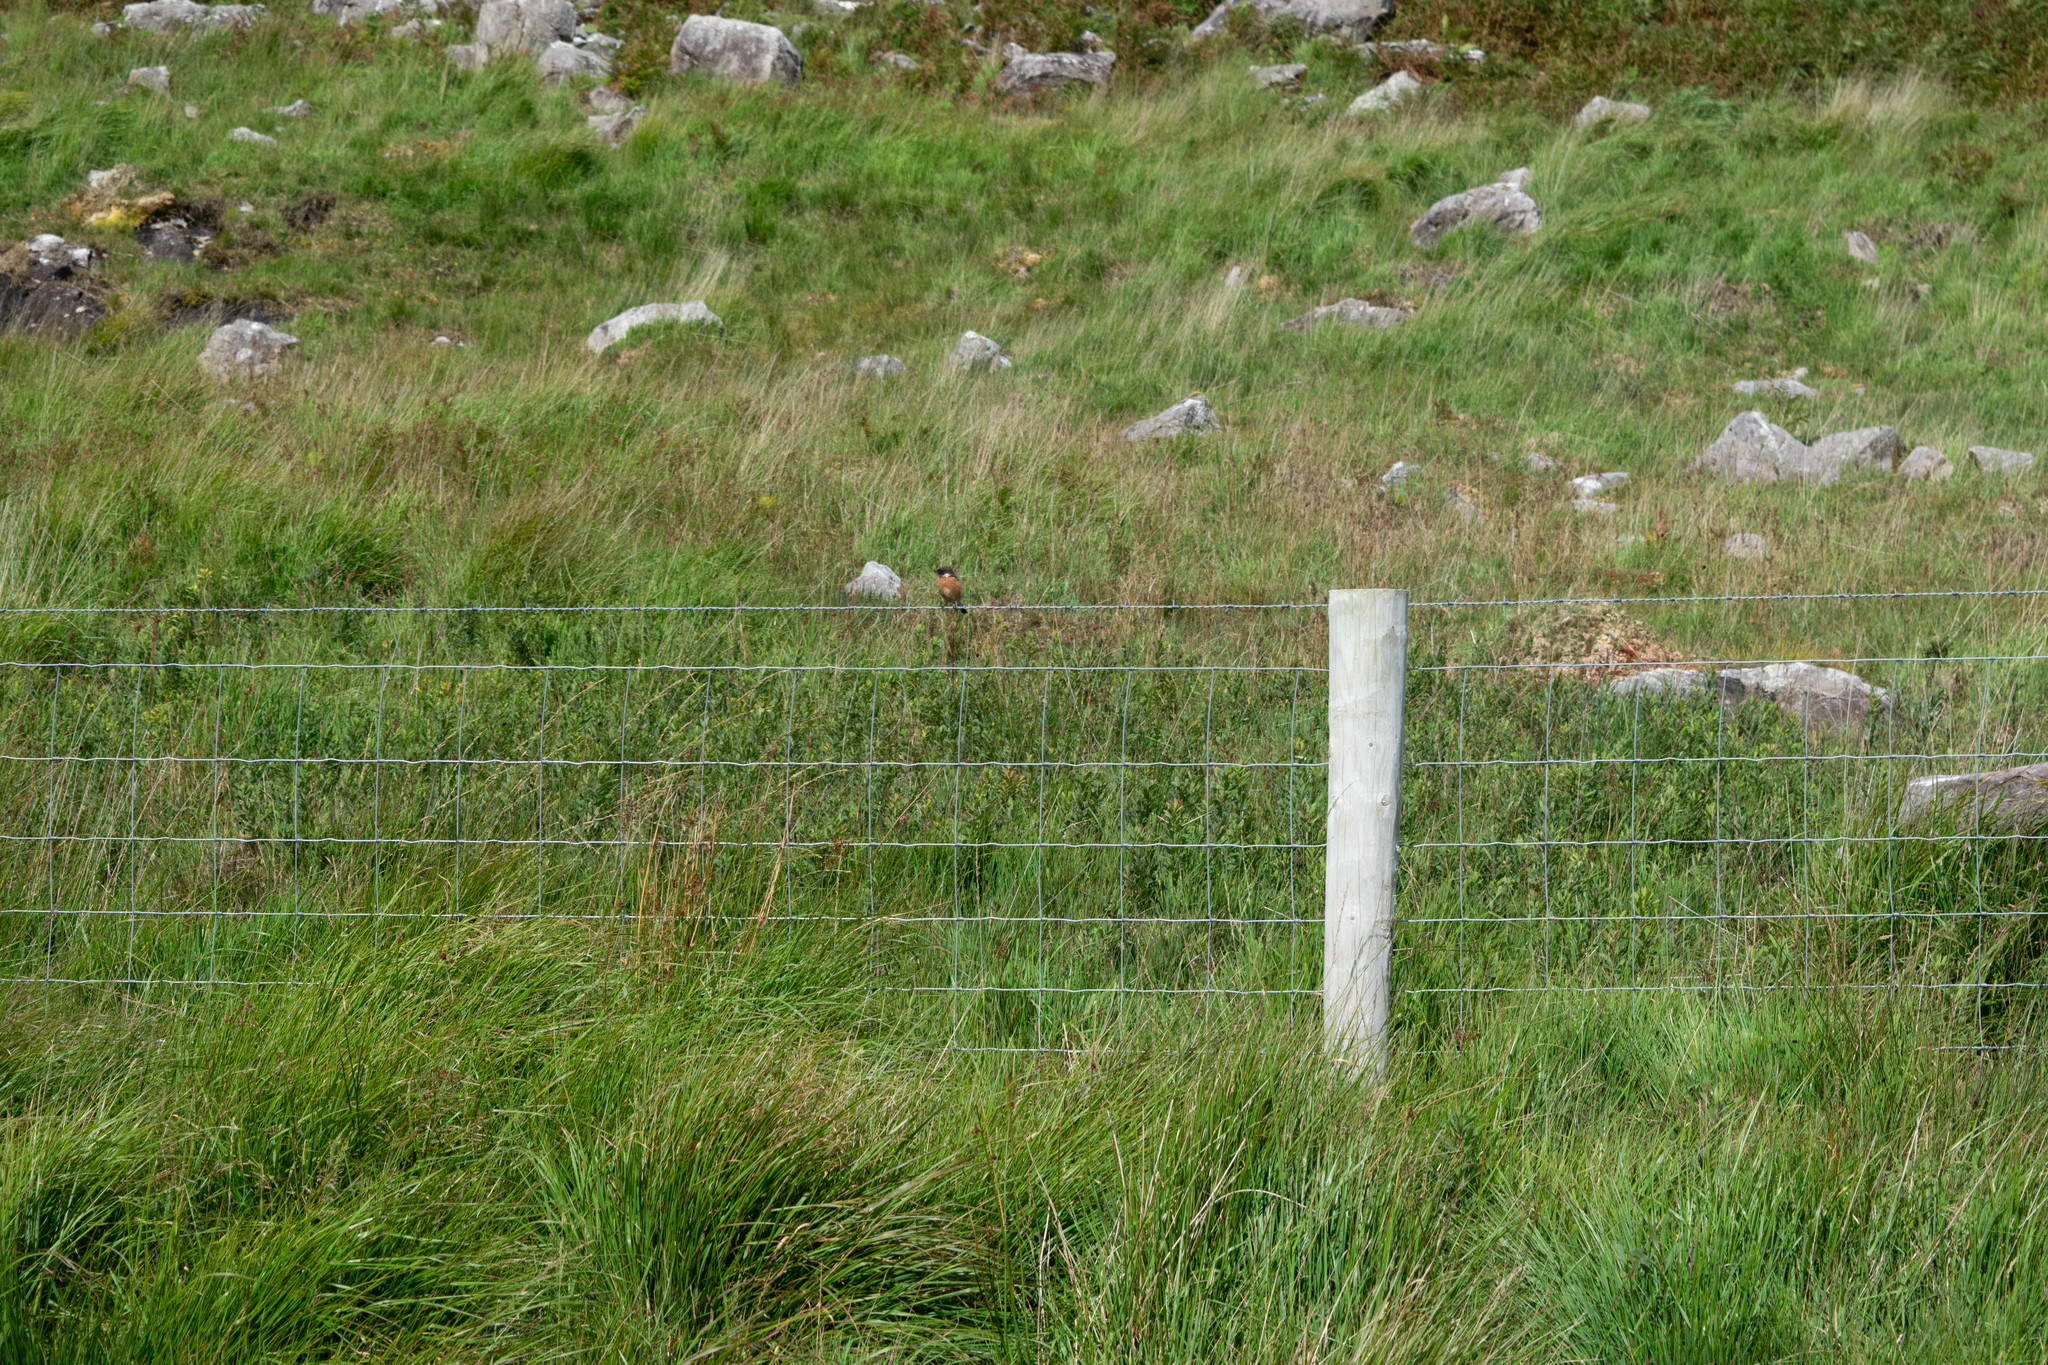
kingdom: Animalia
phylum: Chordata
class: Aves
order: Passeriformes
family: Muscicapidae
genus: Saxicola
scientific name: Saxicola rubicola
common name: European stonechat
